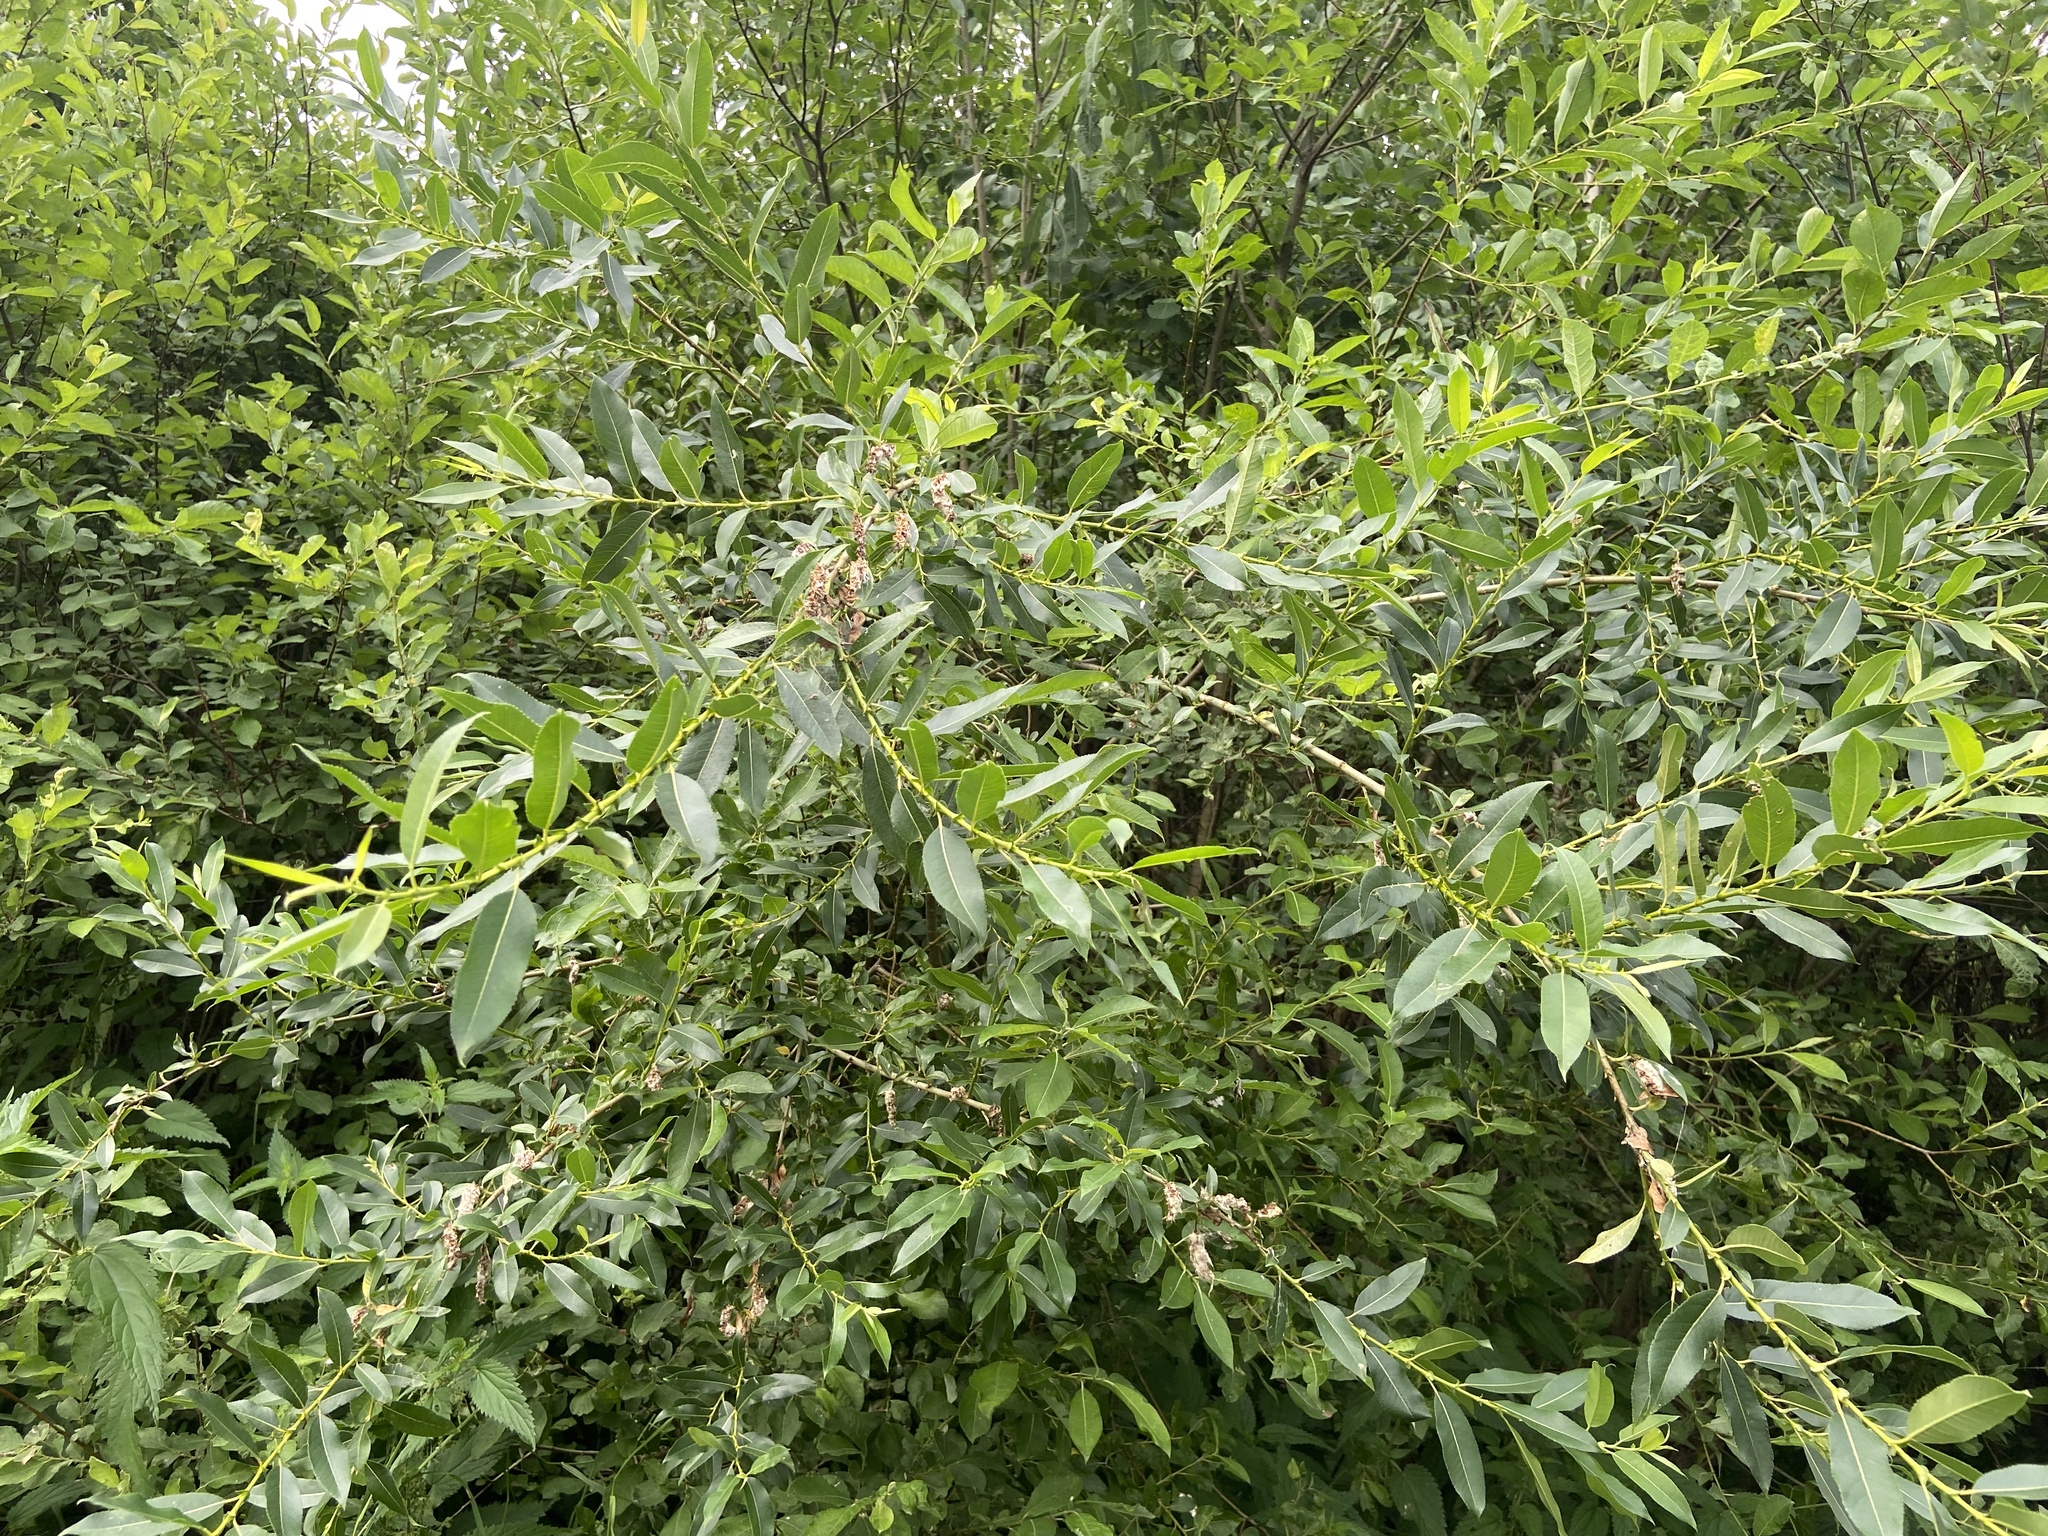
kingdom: Plantae
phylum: Tracheophyta
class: Magnoliopsida
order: Malpighiales
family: Salicaceae
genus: Salix
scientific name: Salix triandra
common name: Almond willow
